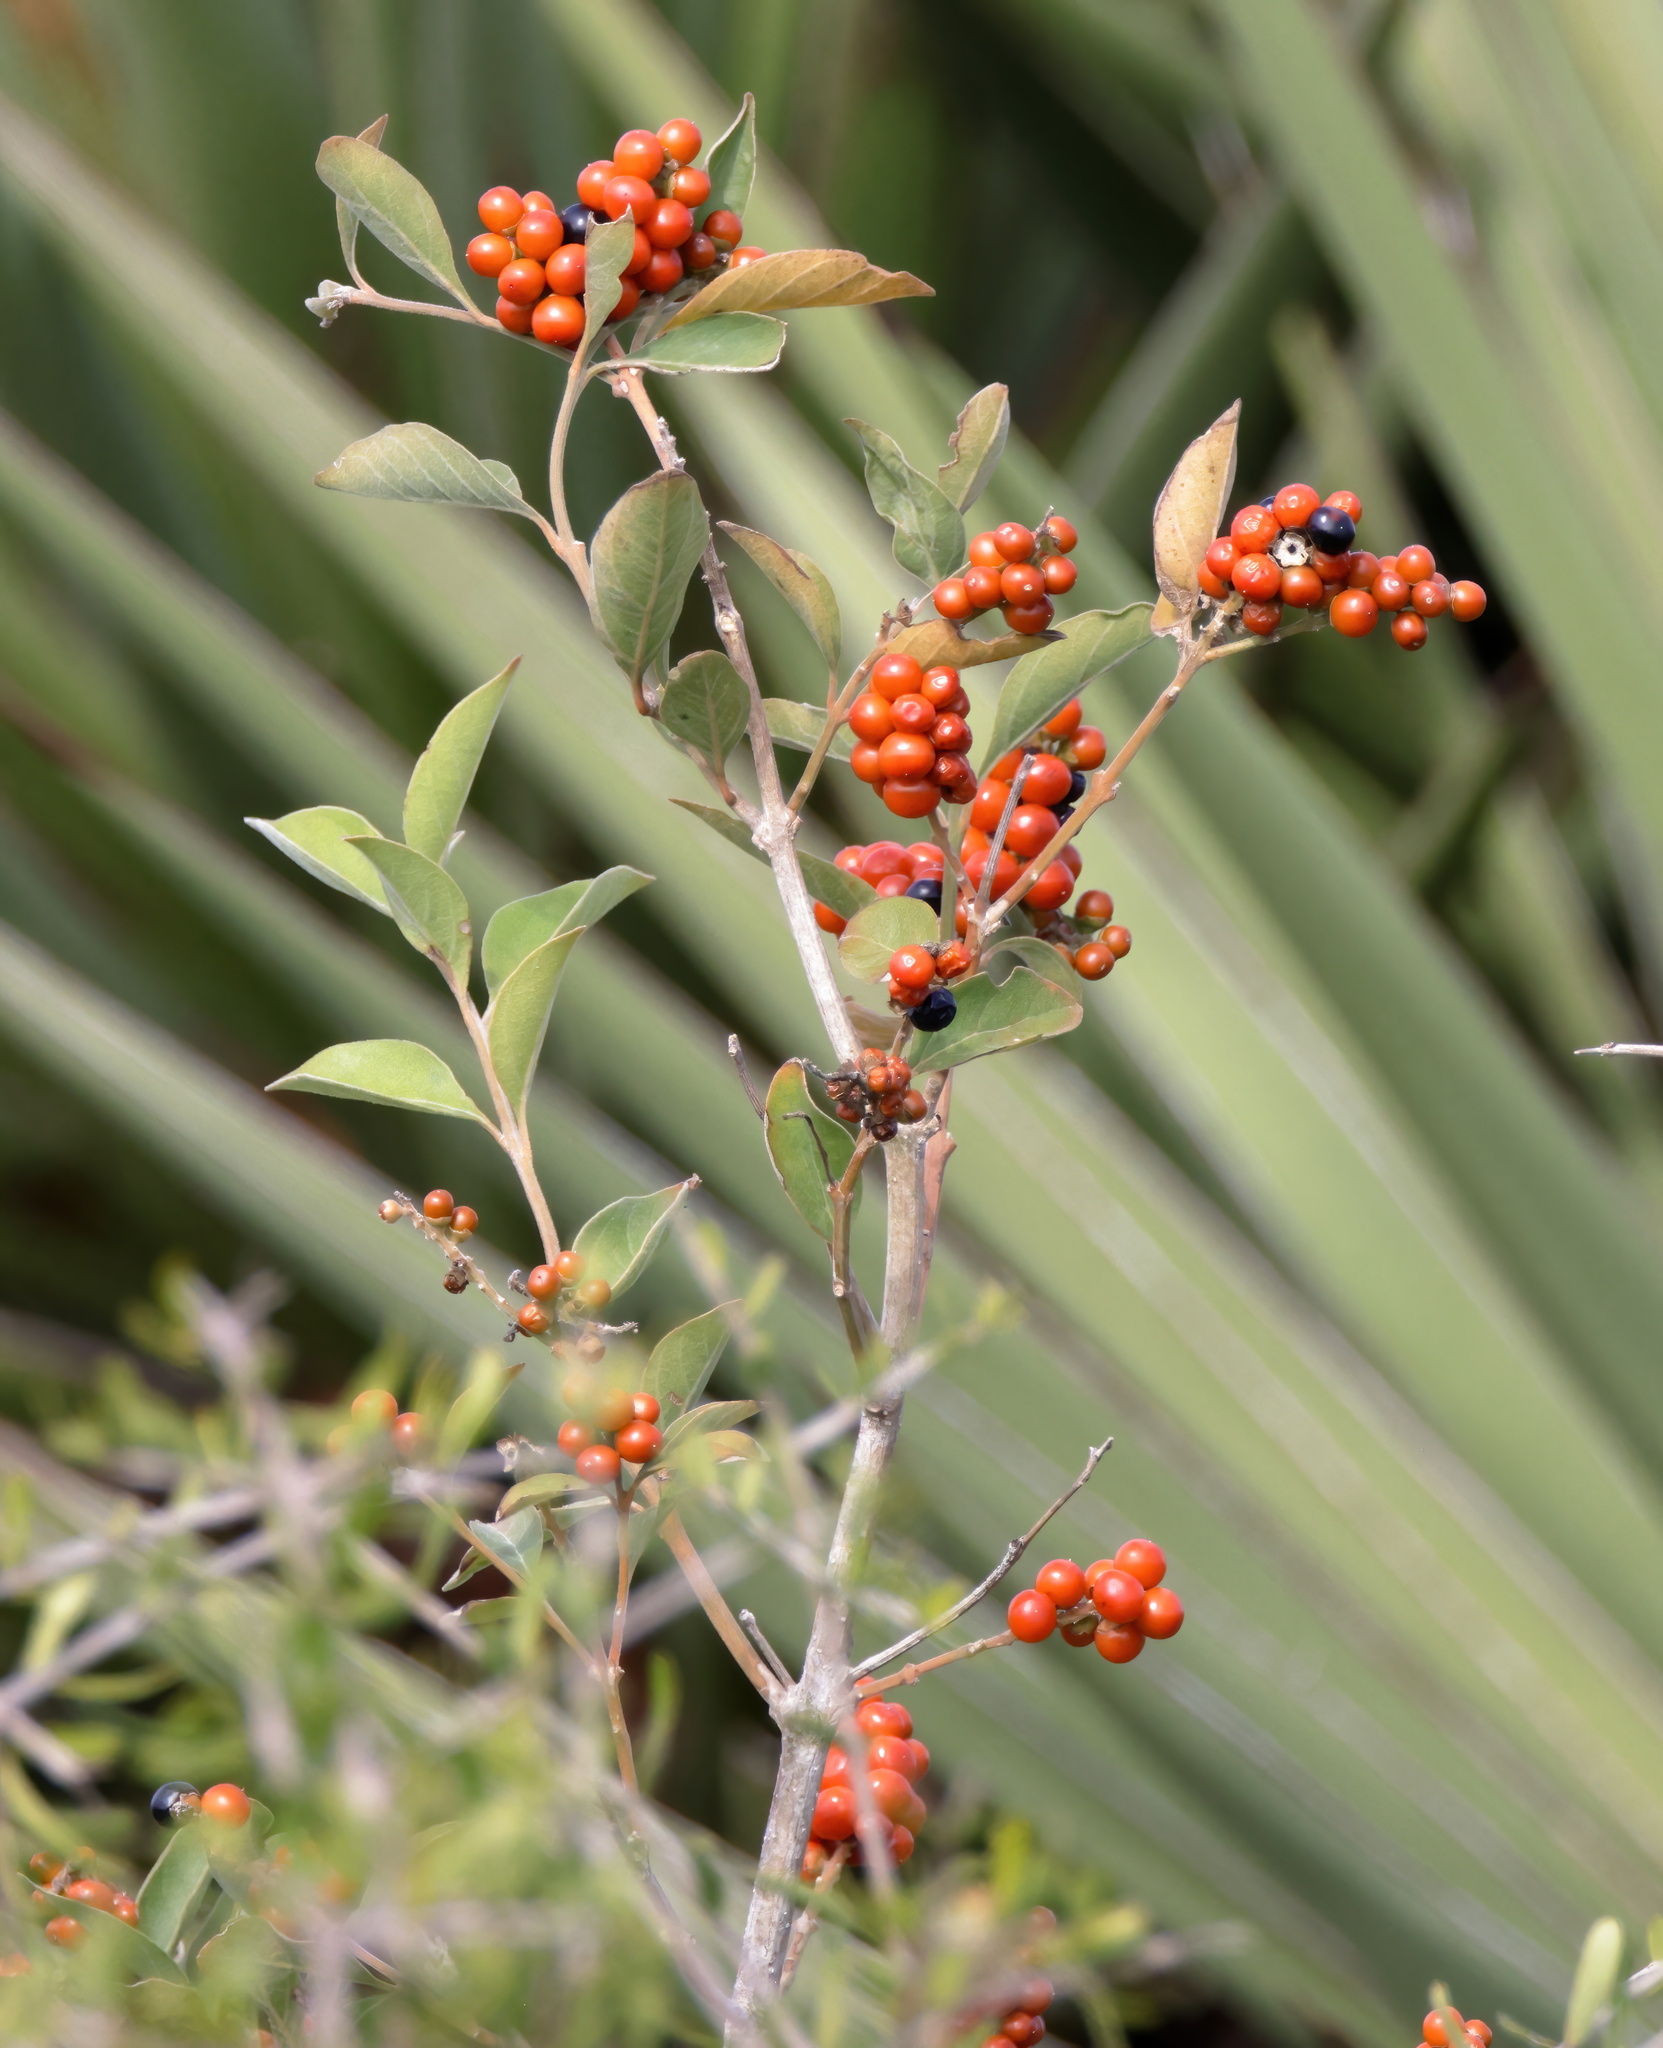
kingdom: Plantae
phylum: Tracheophyta
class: Magnoliopsida
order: Lamiales
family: Verbenaceae
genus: Citharexylum
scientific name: Citharexylum berlandieri
